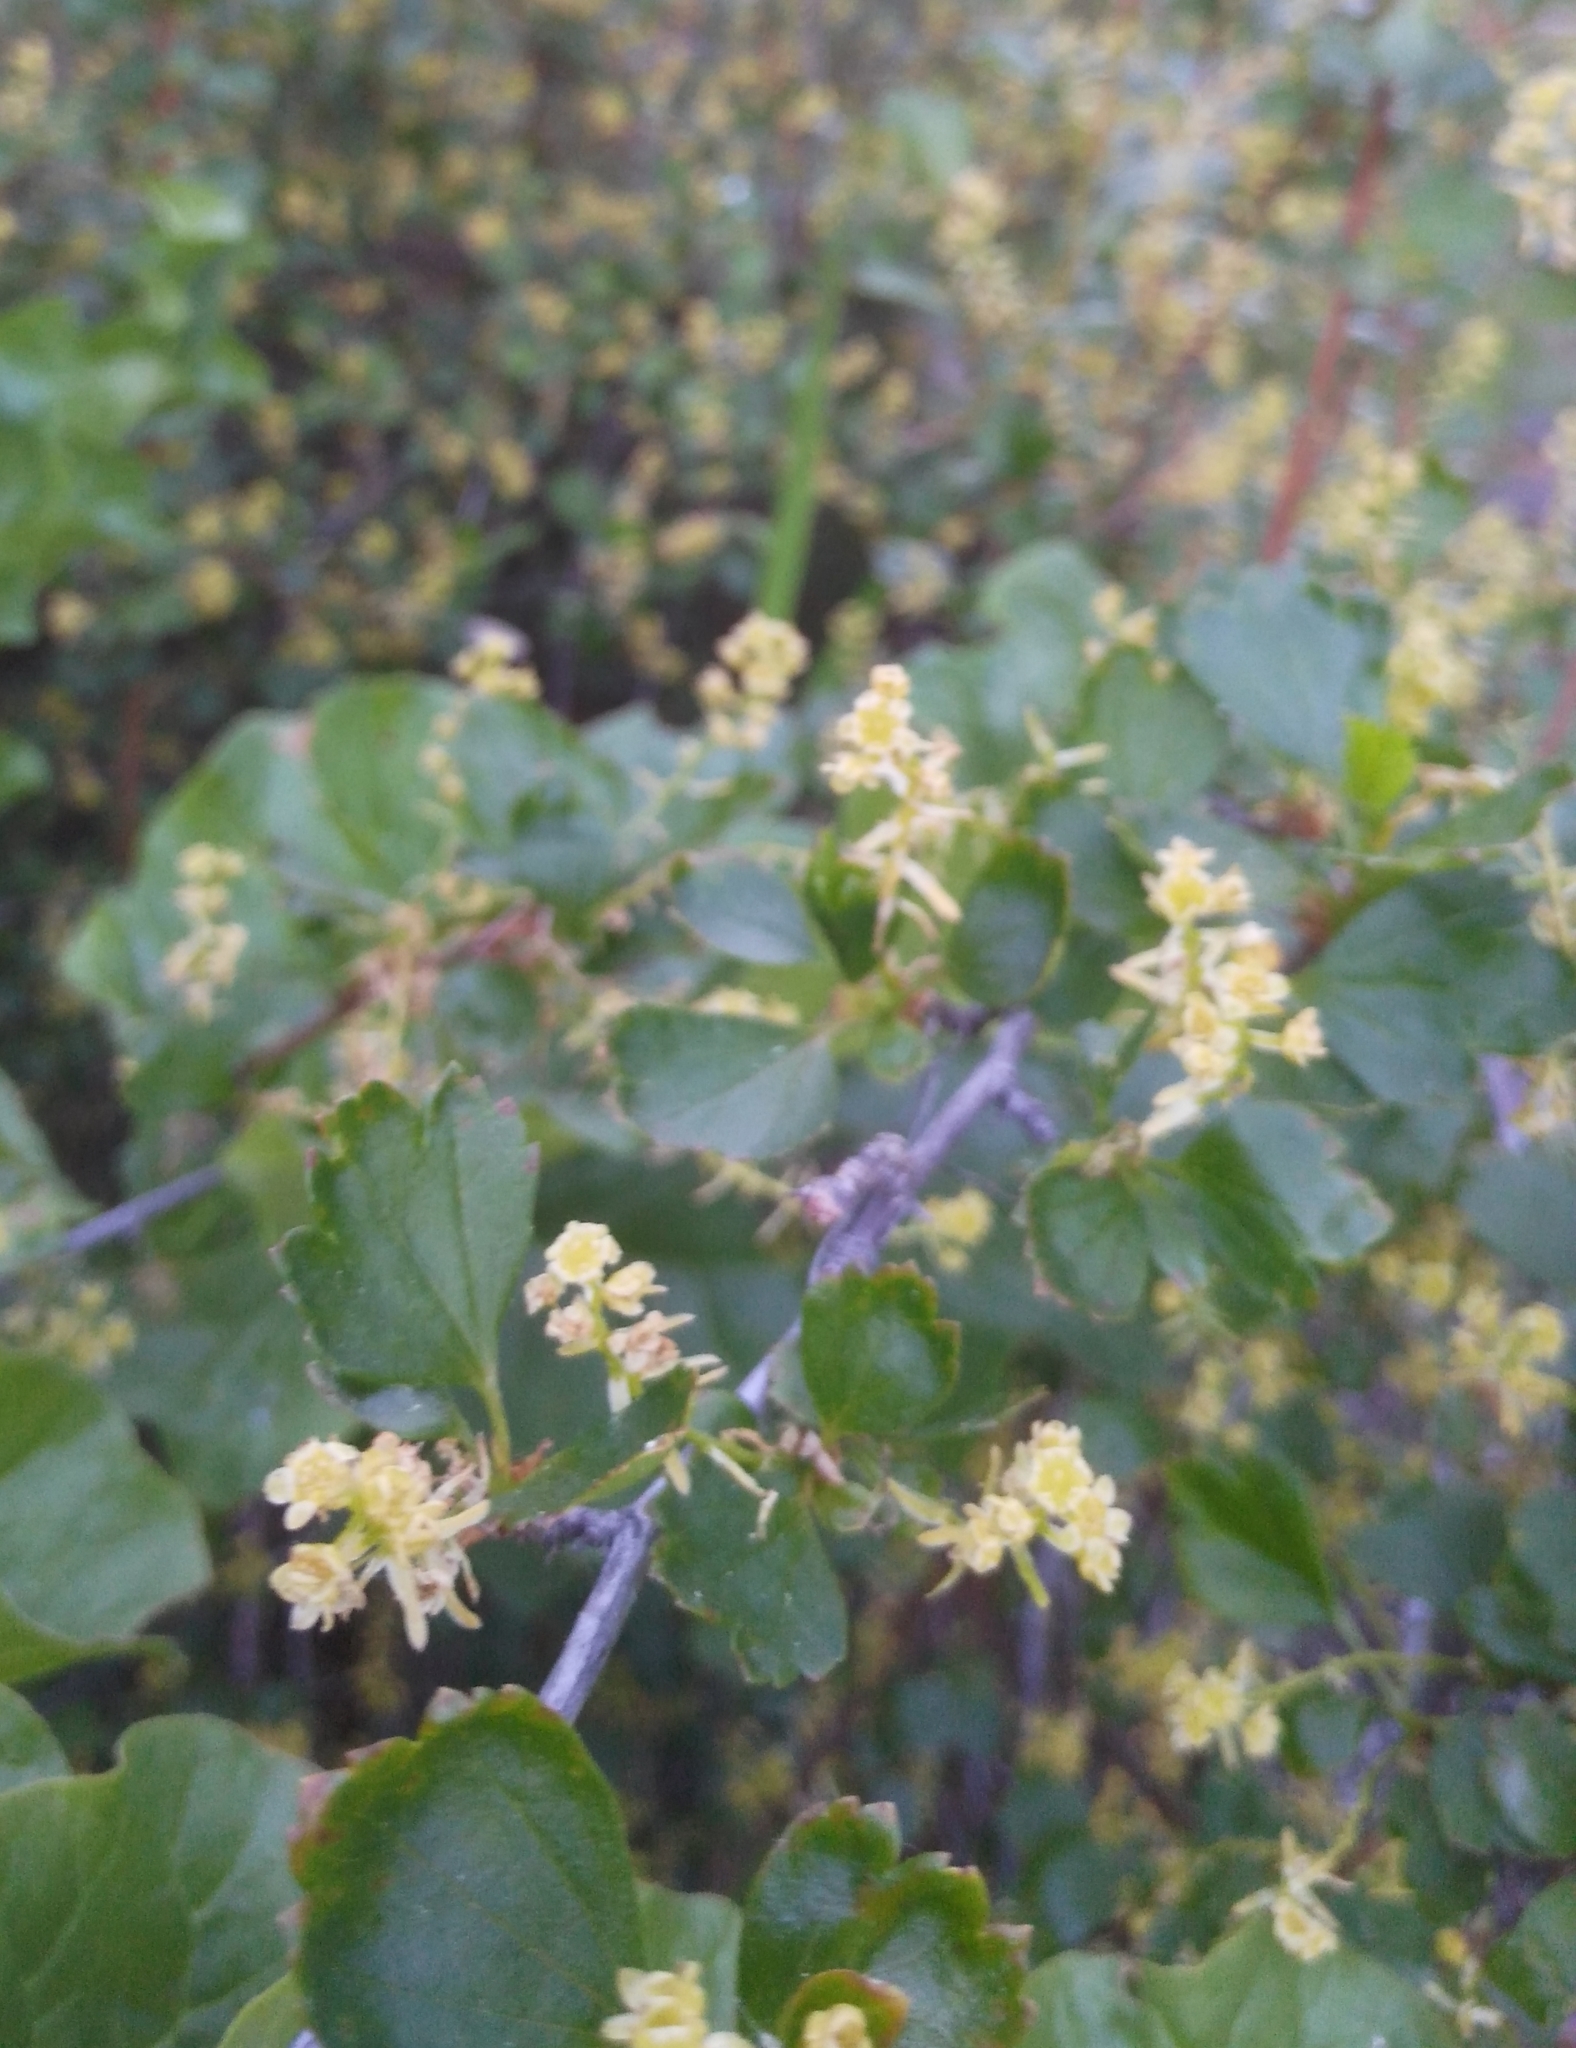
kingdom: Plantae
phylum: Tracheophyta
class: Magnoliopsida
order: Saxifragales
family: Grossulariaceae
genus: Ribes
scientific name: Ribes diacanthum
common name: Siberian currant
